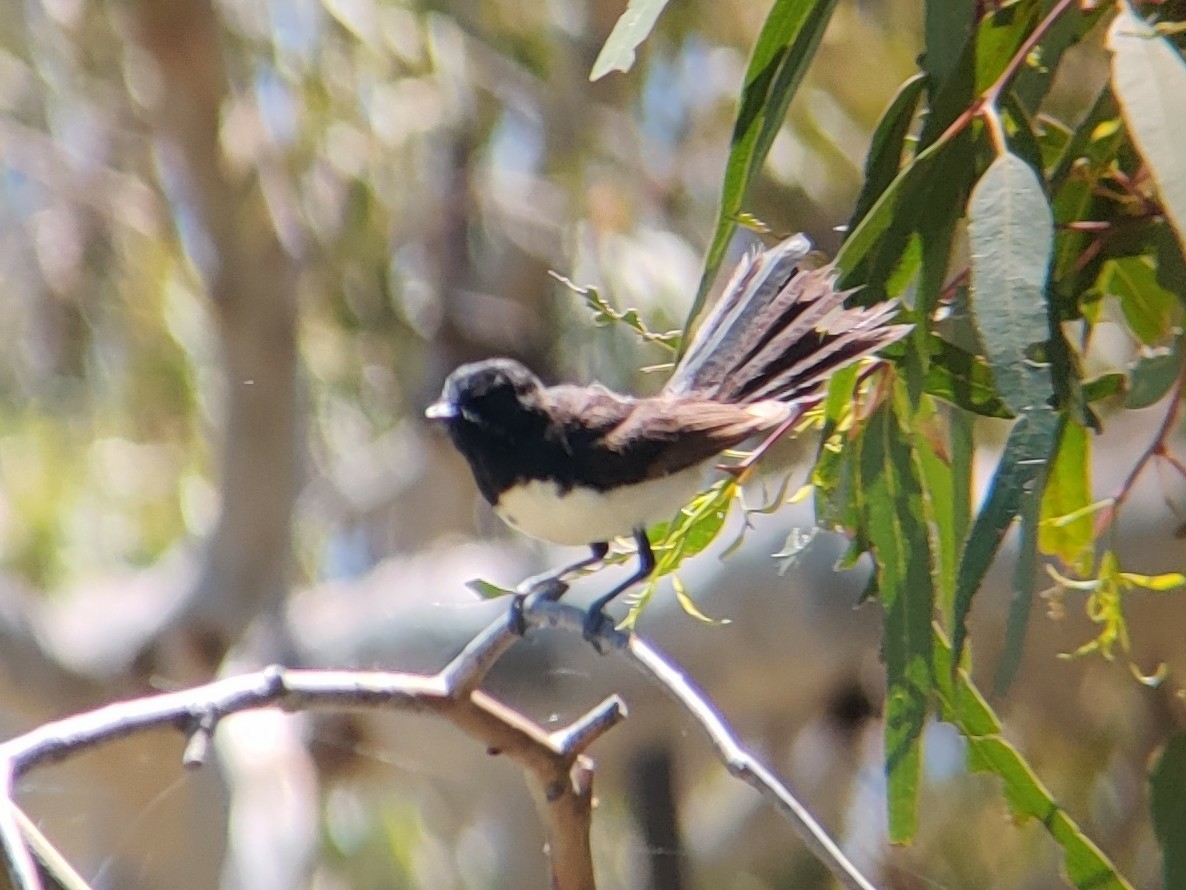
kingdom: Animalia
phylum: Chordata
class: Aves
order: Passeriformes
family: Rhipiduridae
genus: Rhipidura
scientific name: Rhipidura leucophrys
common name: Willie wagtail
